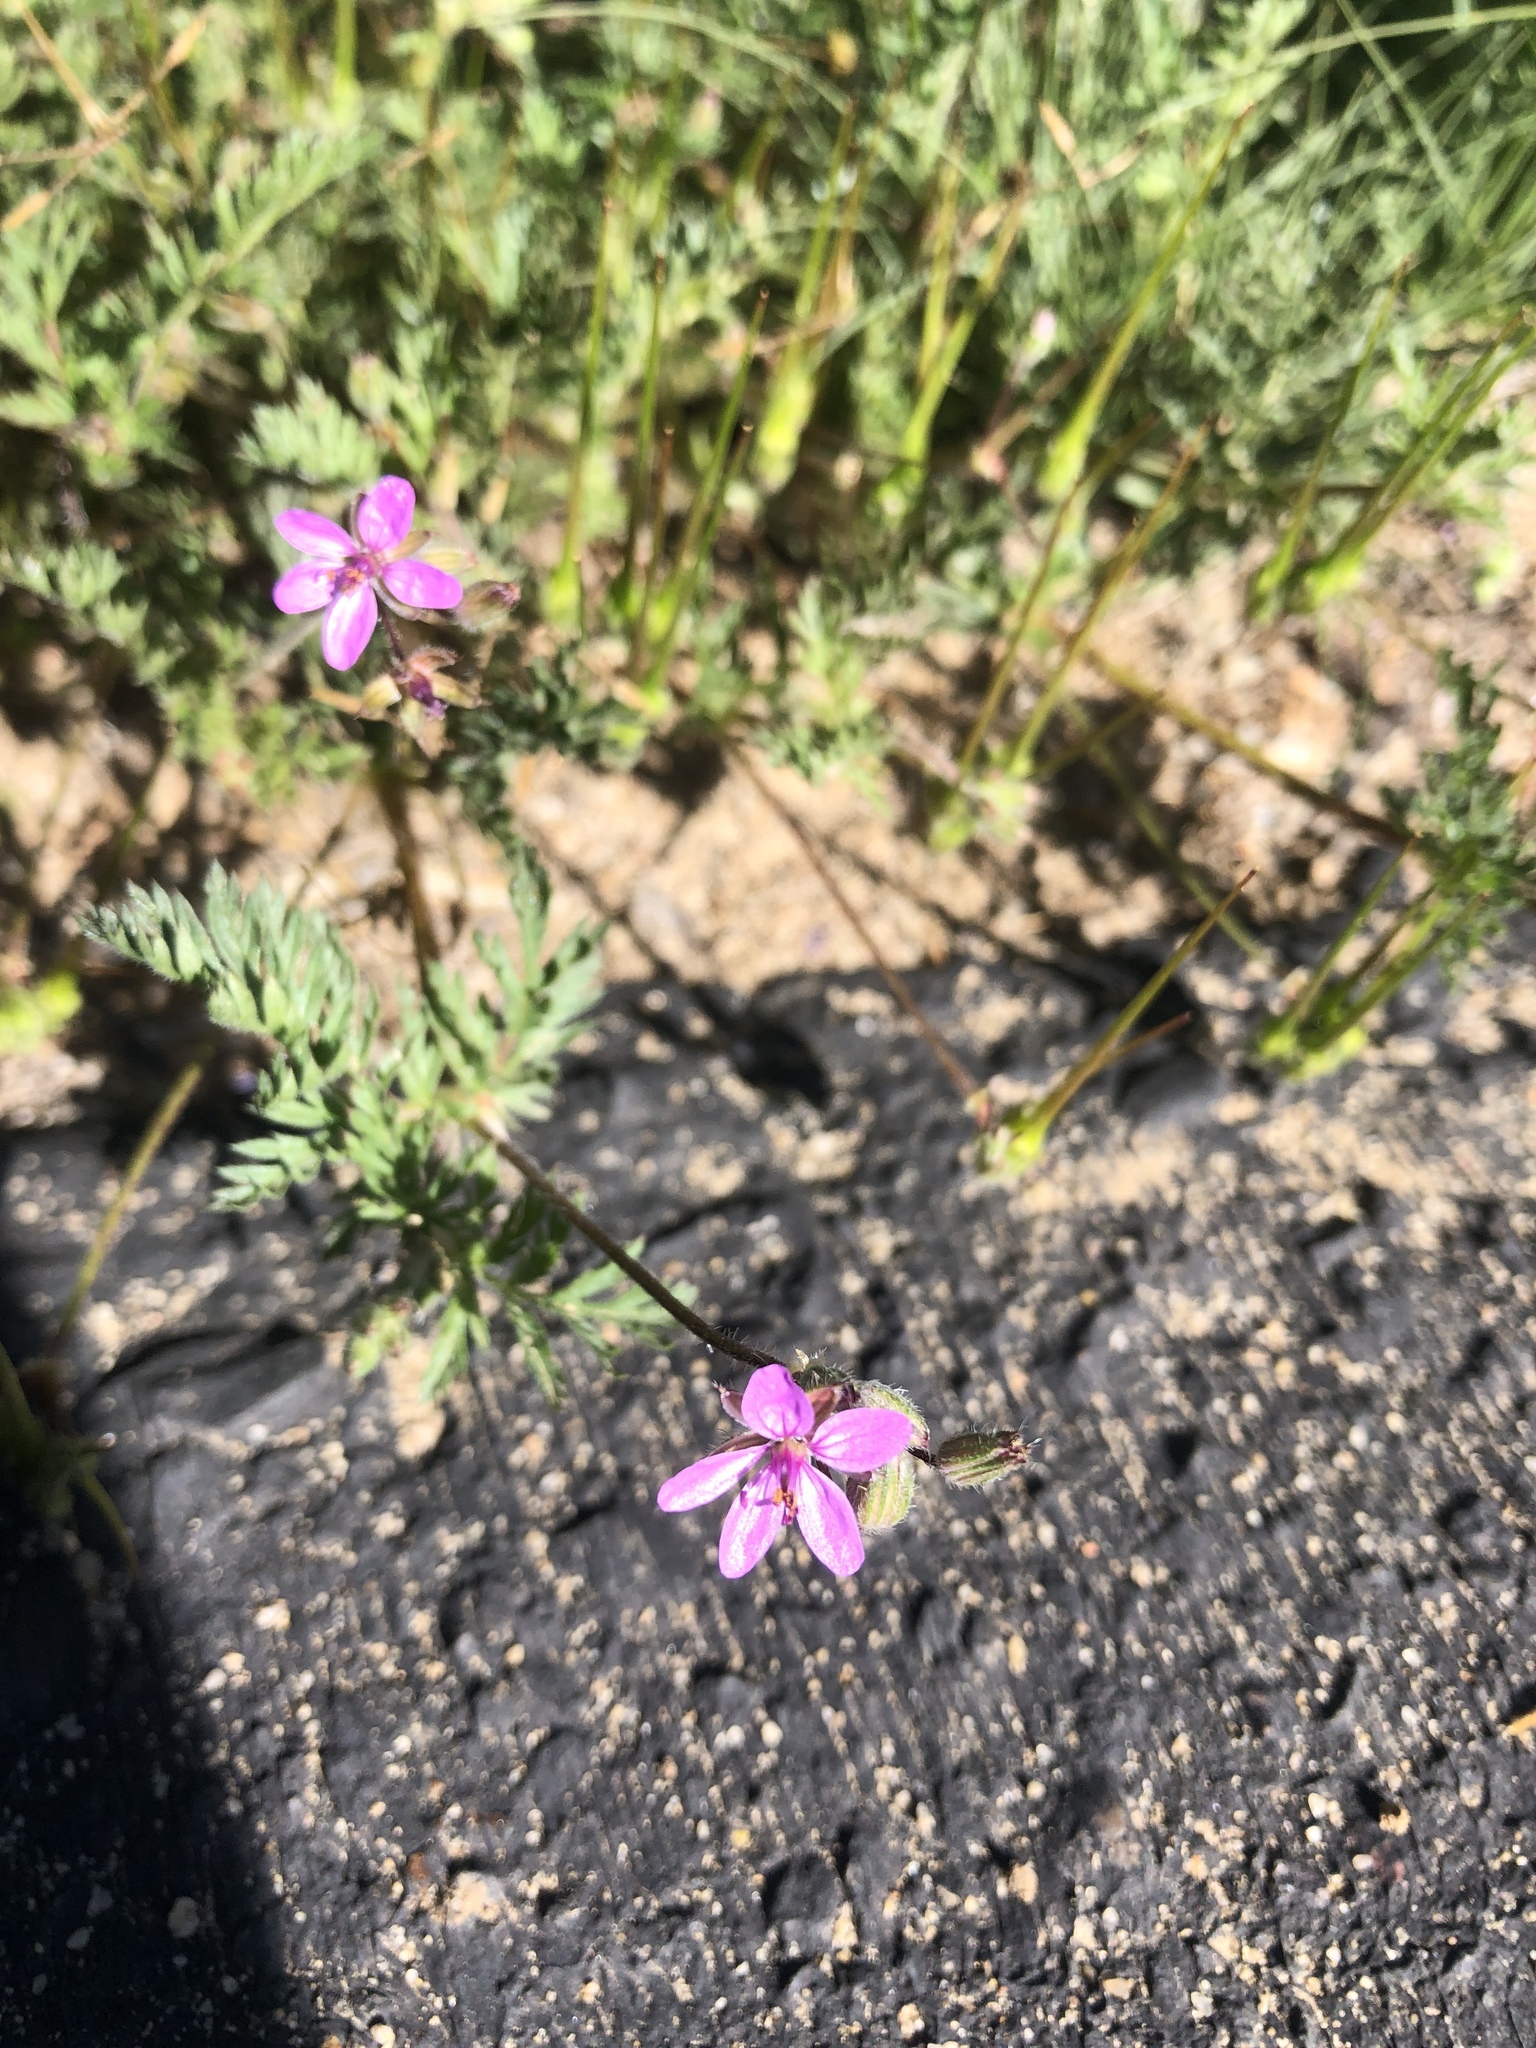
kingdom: Plantae
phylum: Tracheophyta
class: Magnoliopsida
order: Geraniales
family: Geraniaceae
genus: Erodium
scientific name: Erodium cicutarium
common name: Common stork's-bill
